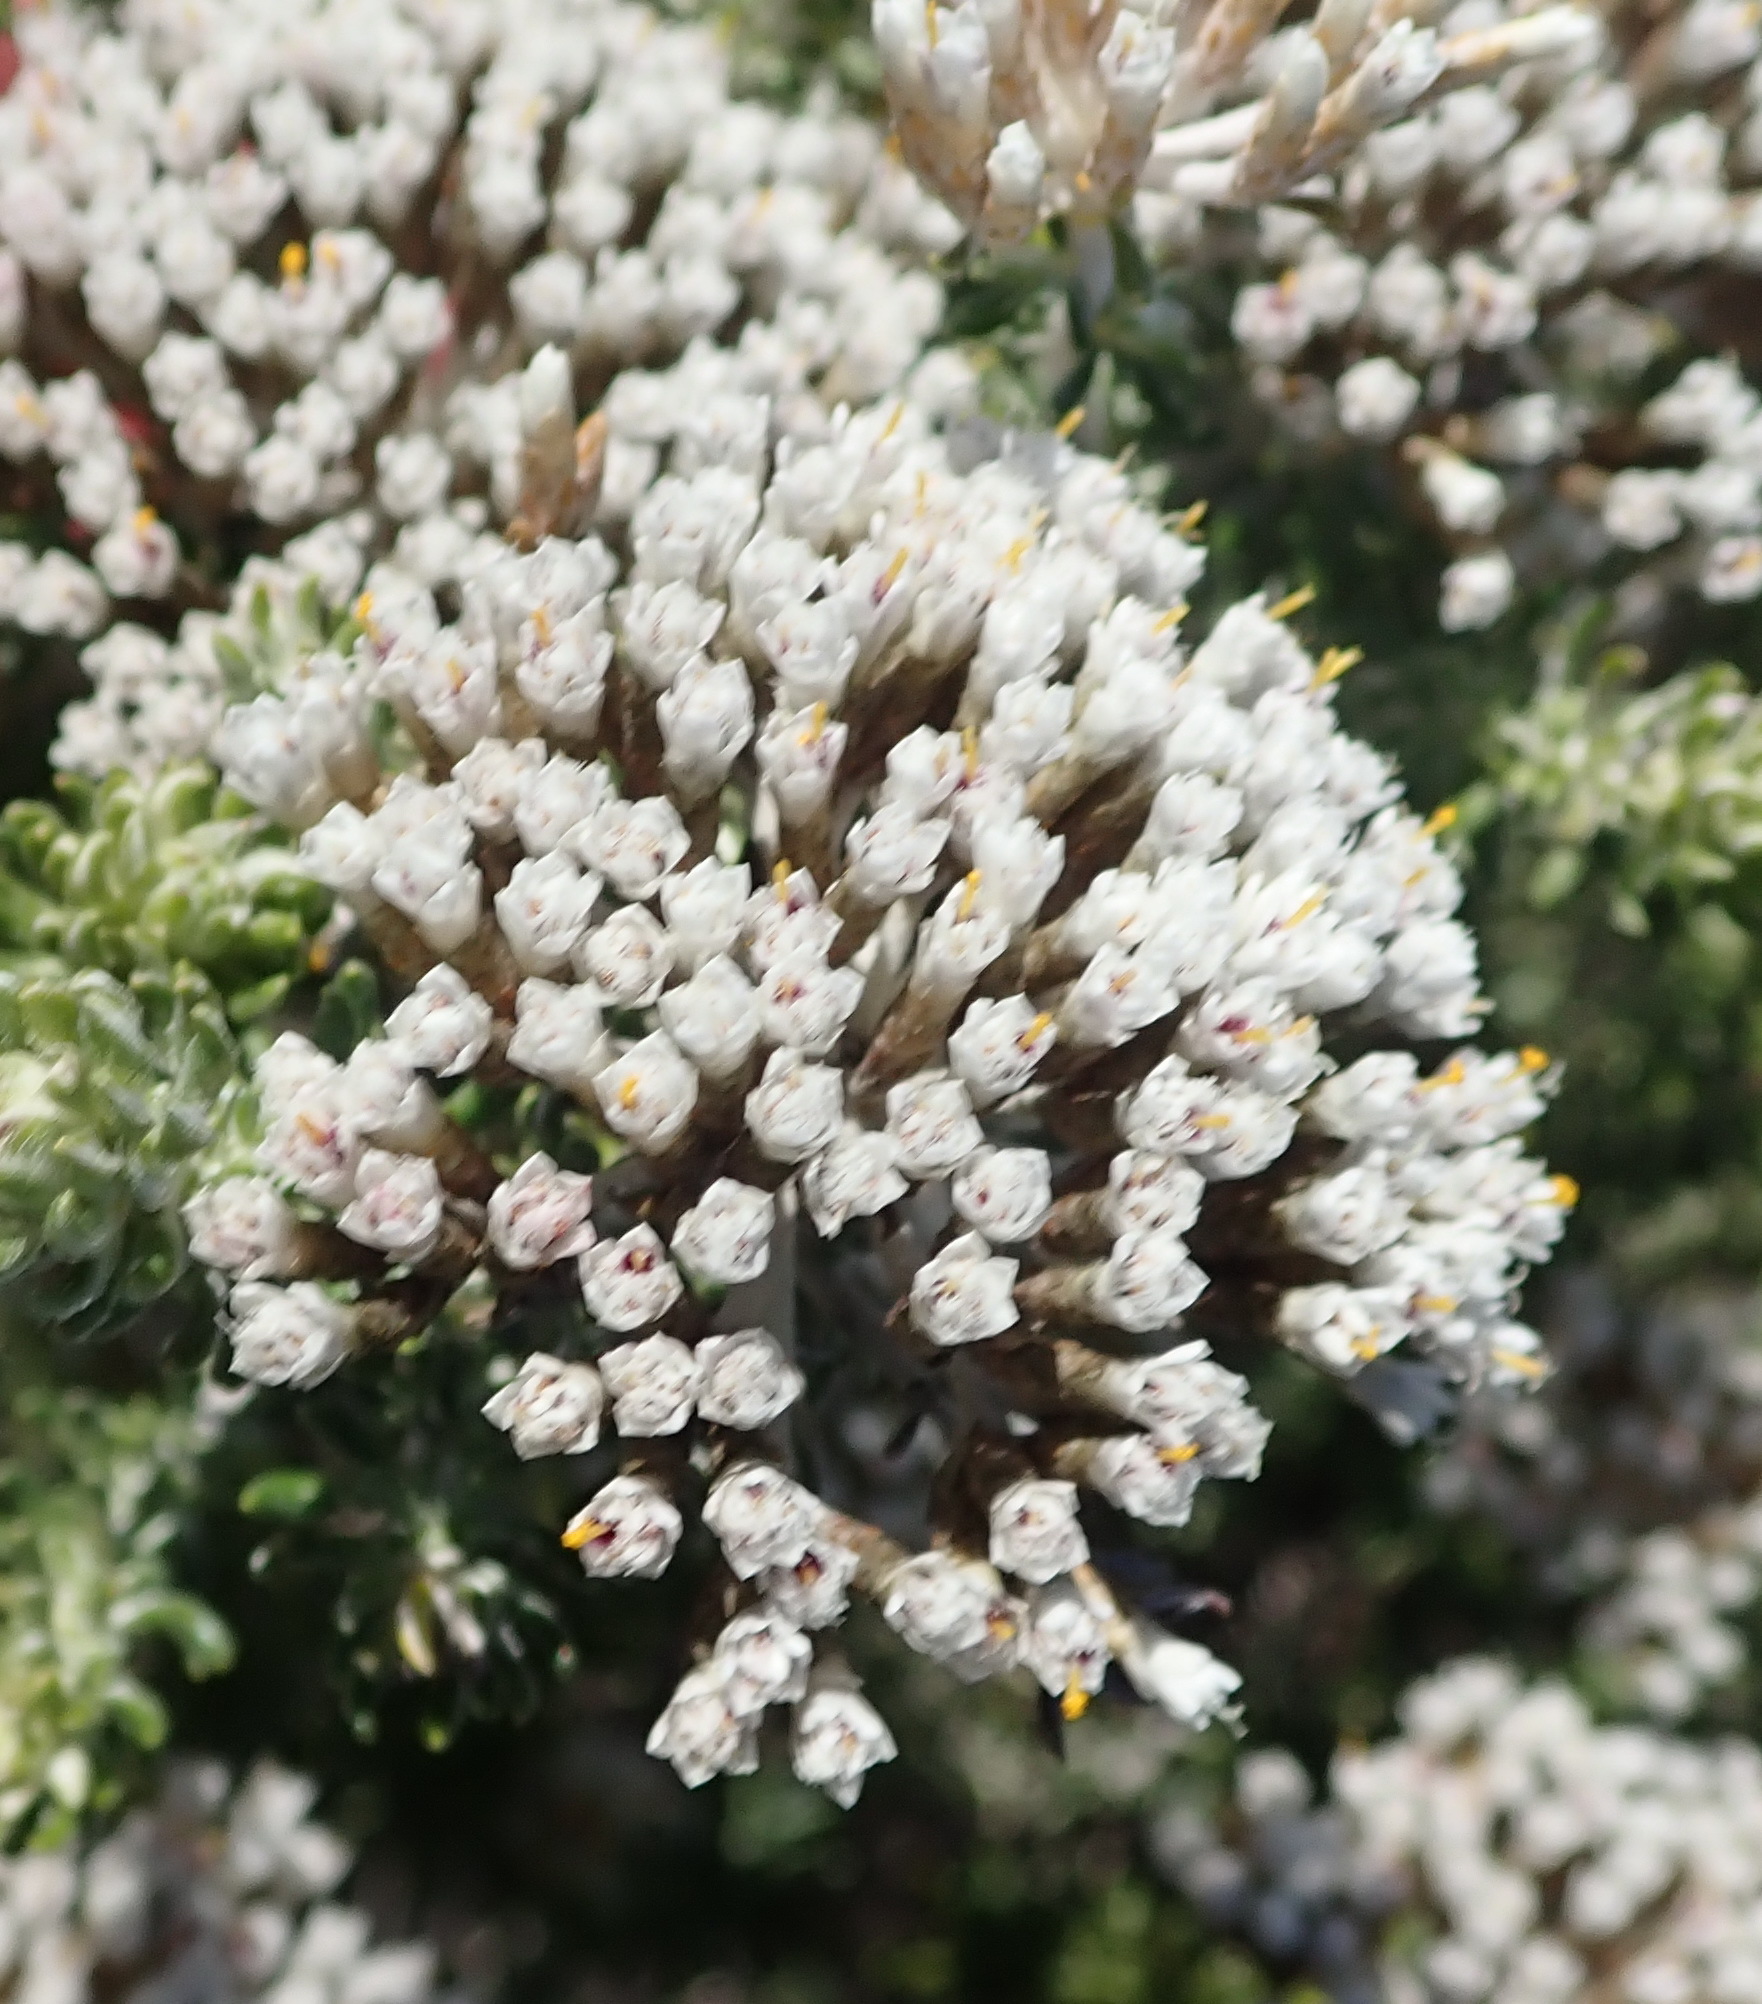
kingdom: Plantae
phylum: Tracheophyta
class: Magnoliopsida
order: Asterales
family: Asteraceae
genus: Metalasia
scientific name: Metalasia muricata
